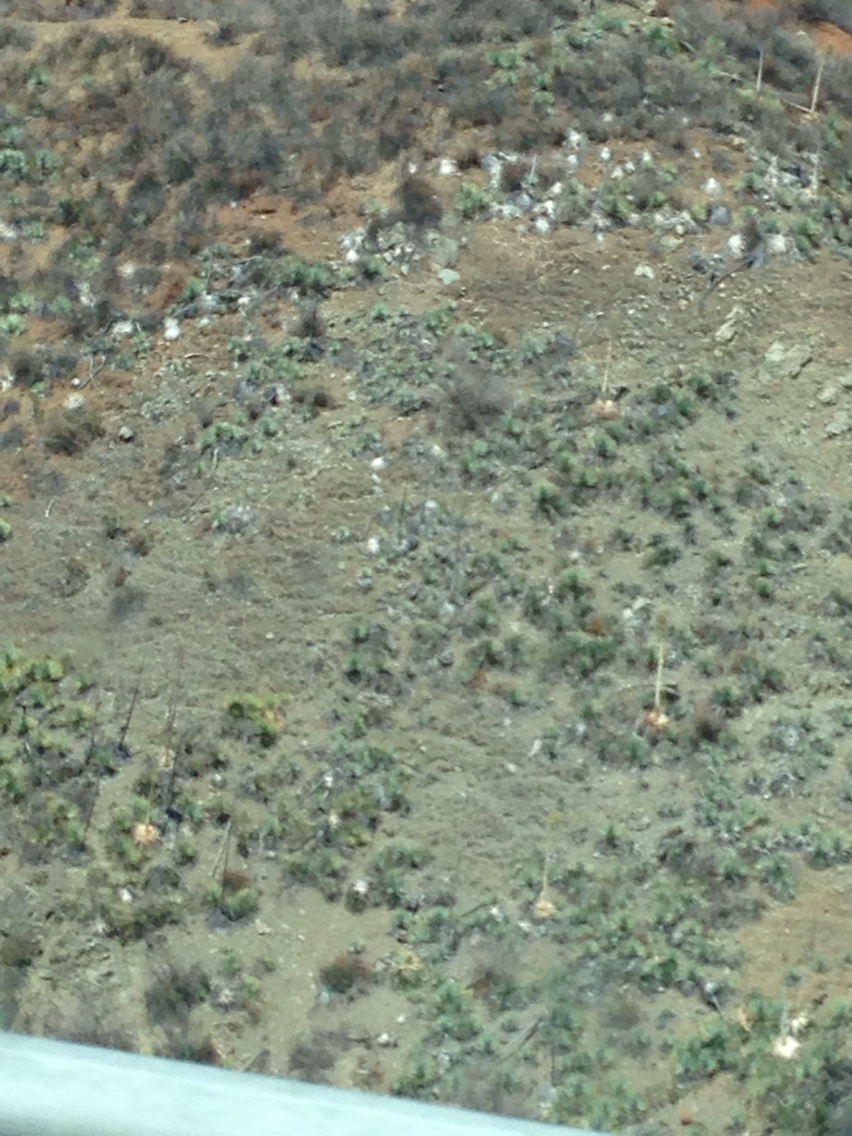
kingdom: Plantae
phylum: Tracheophyta
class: Liliopsida
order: Asparagales
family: Asparagaceae
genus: Hesperoyucca
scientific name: Hesperoyucca whipplei
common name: Our lord's-candle
